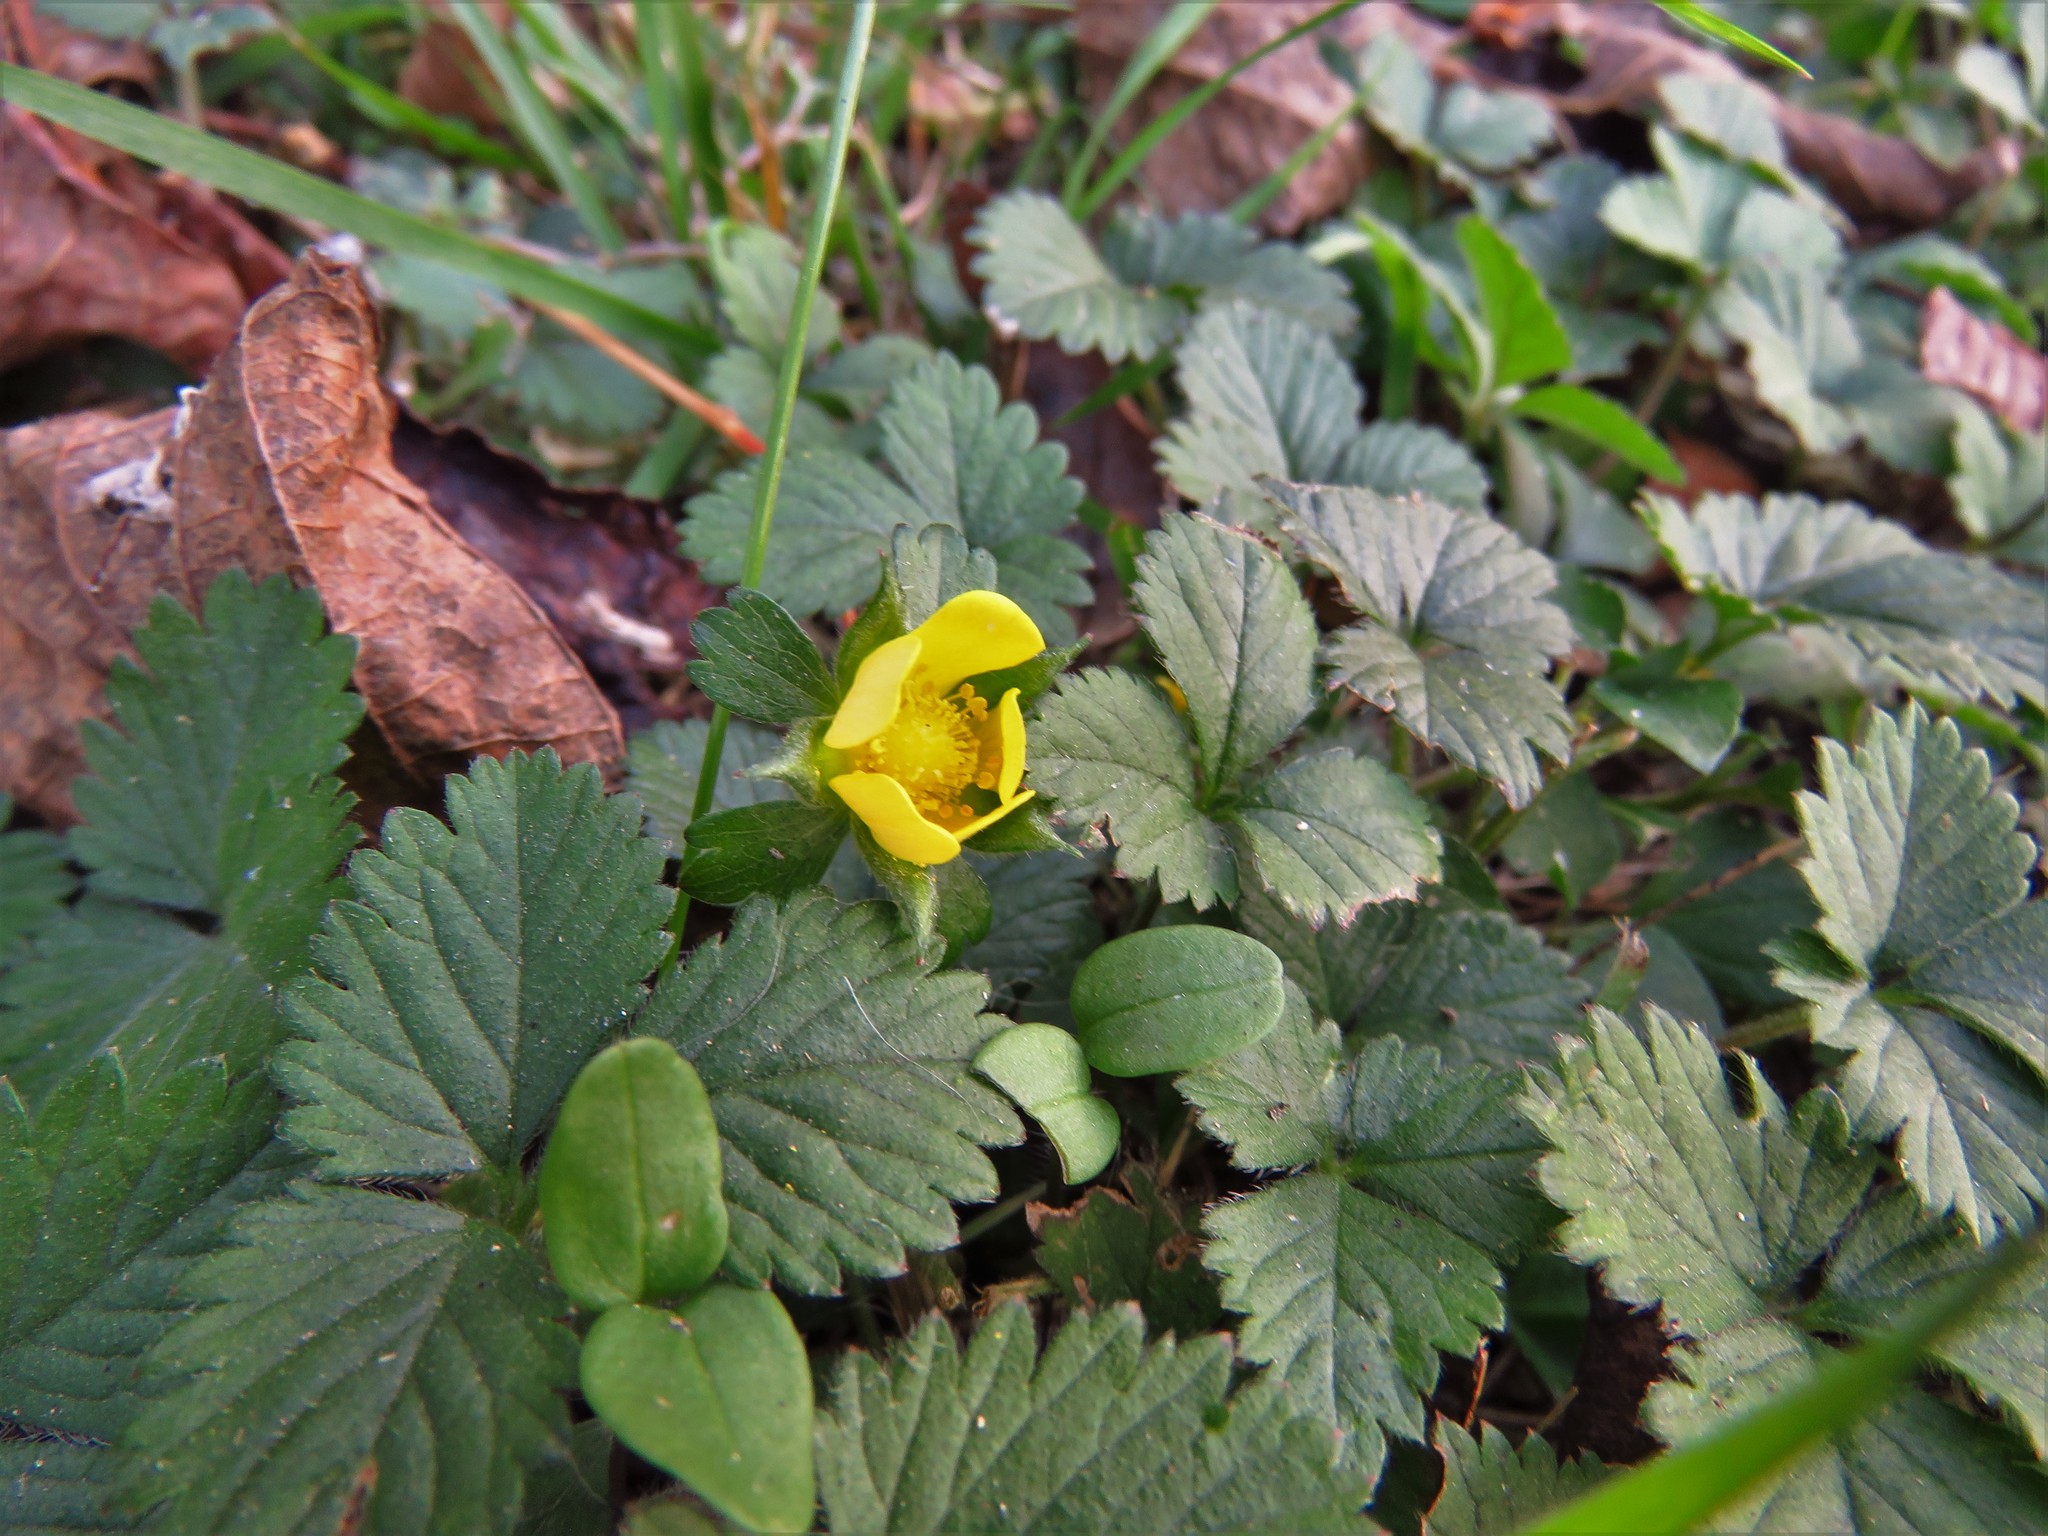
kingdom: Plantae
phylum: Tracheophyta
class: Magnoliopsida
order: Rosales
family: Rosaceae
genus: Potentilla
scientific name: Potentilla indica
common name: Yellow-flowered strawberry
